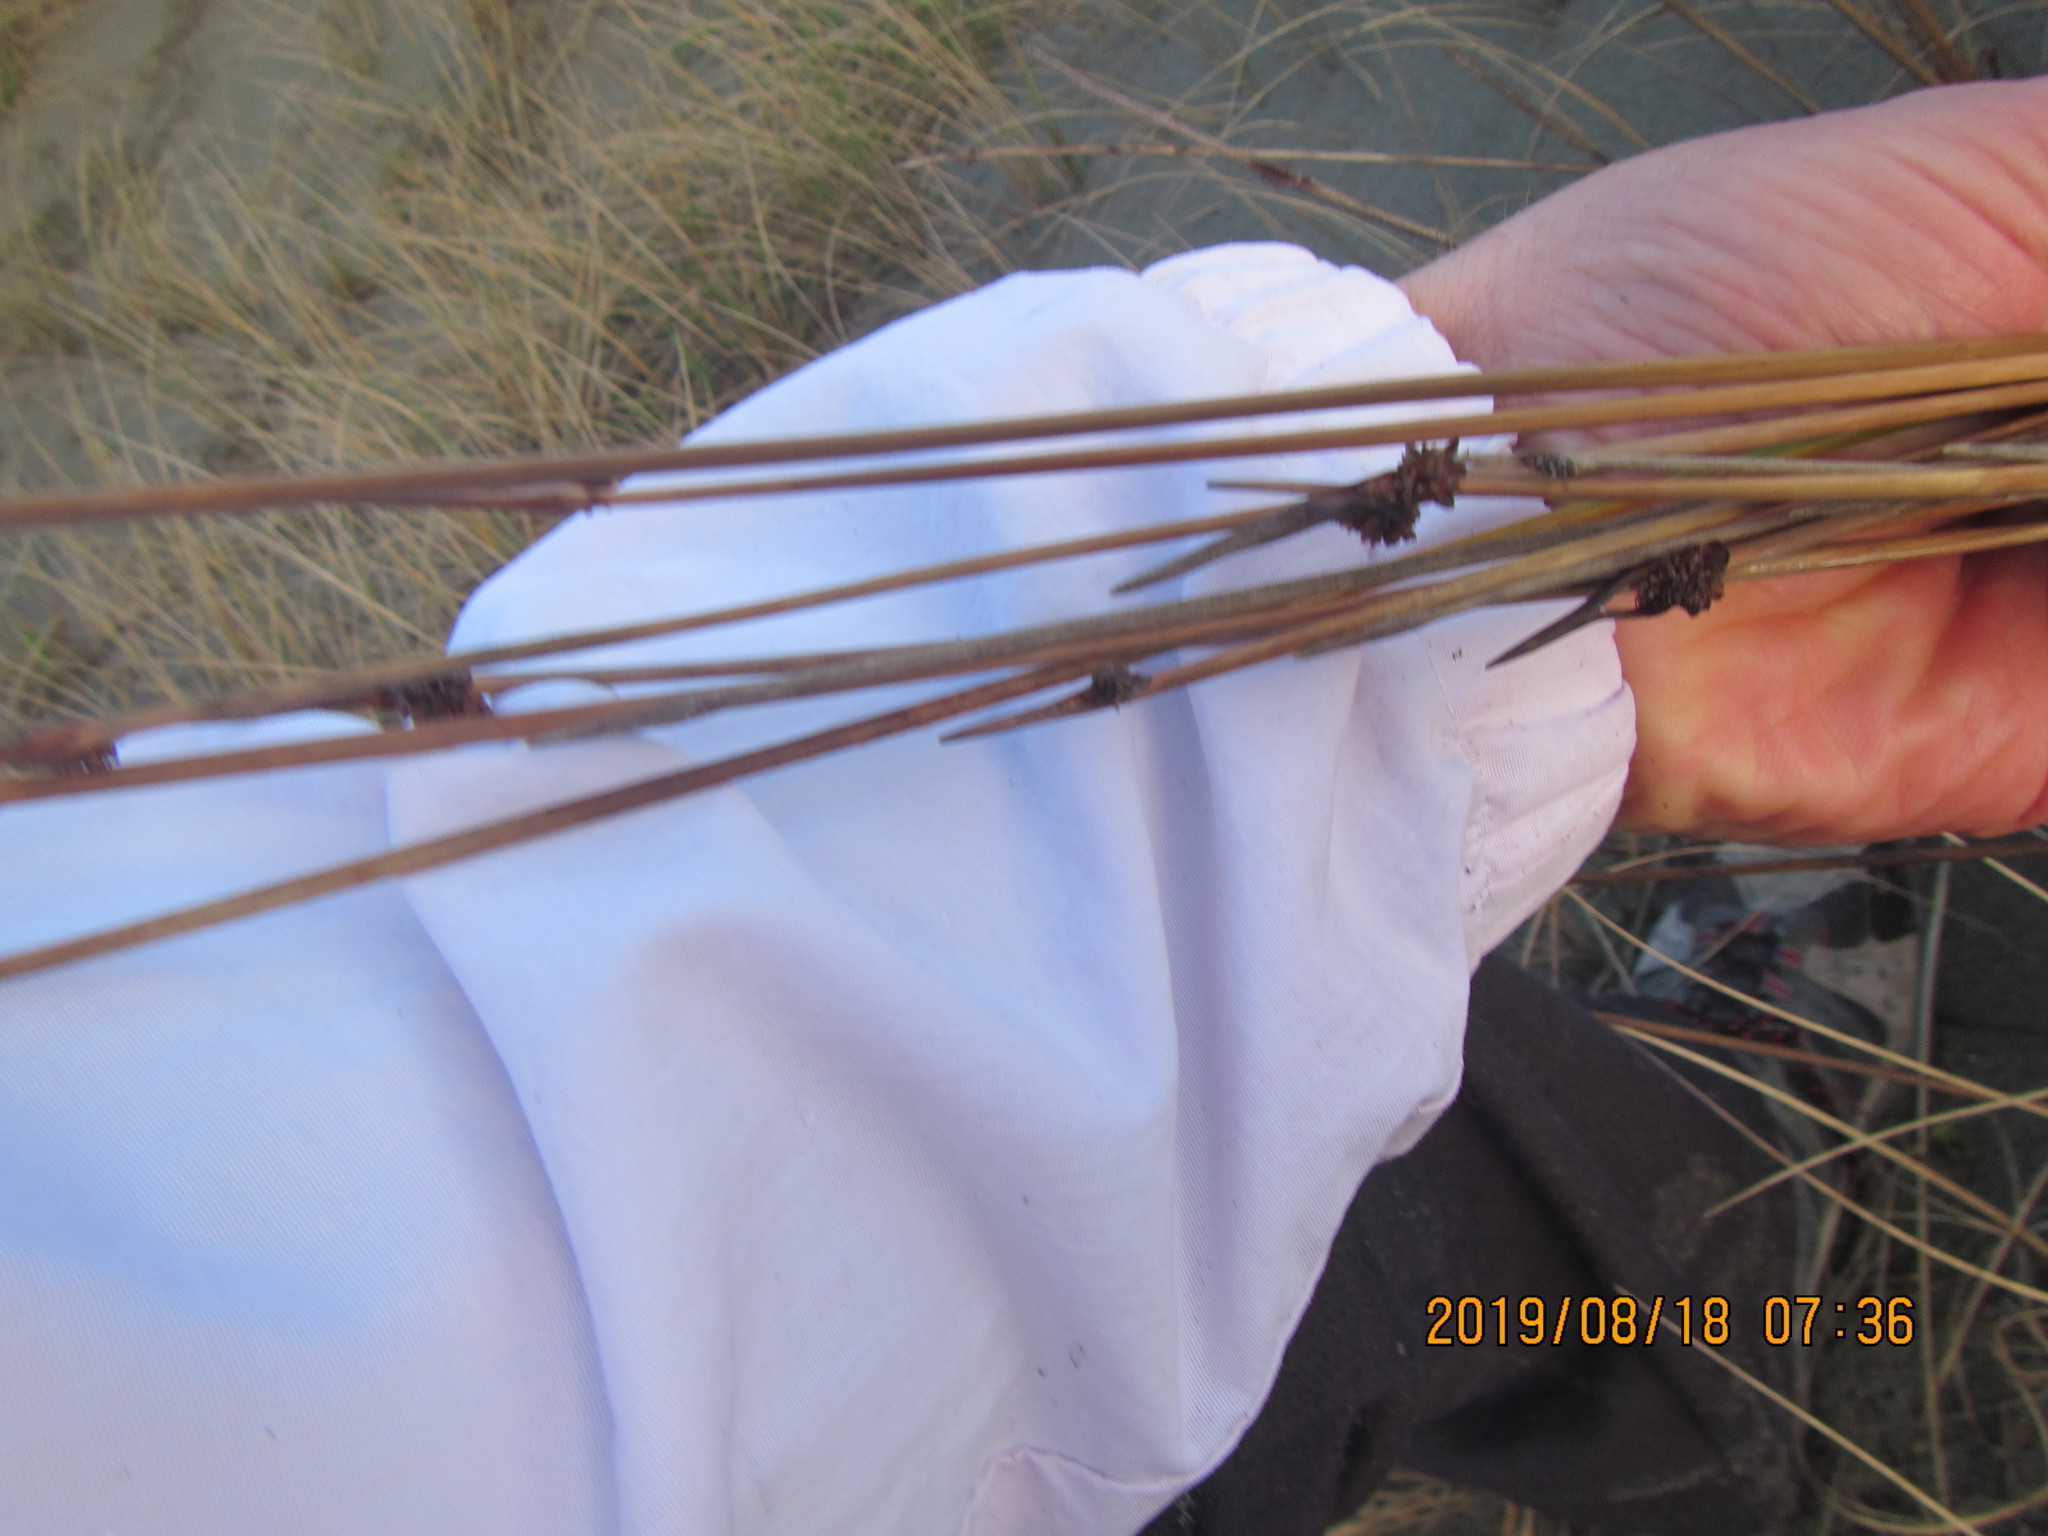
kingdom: Plantae
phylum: Tracheophyta
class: Liliopsida
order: Poales
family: Cyperaceae
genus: Ficinia
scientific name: Ficinia nodosa
